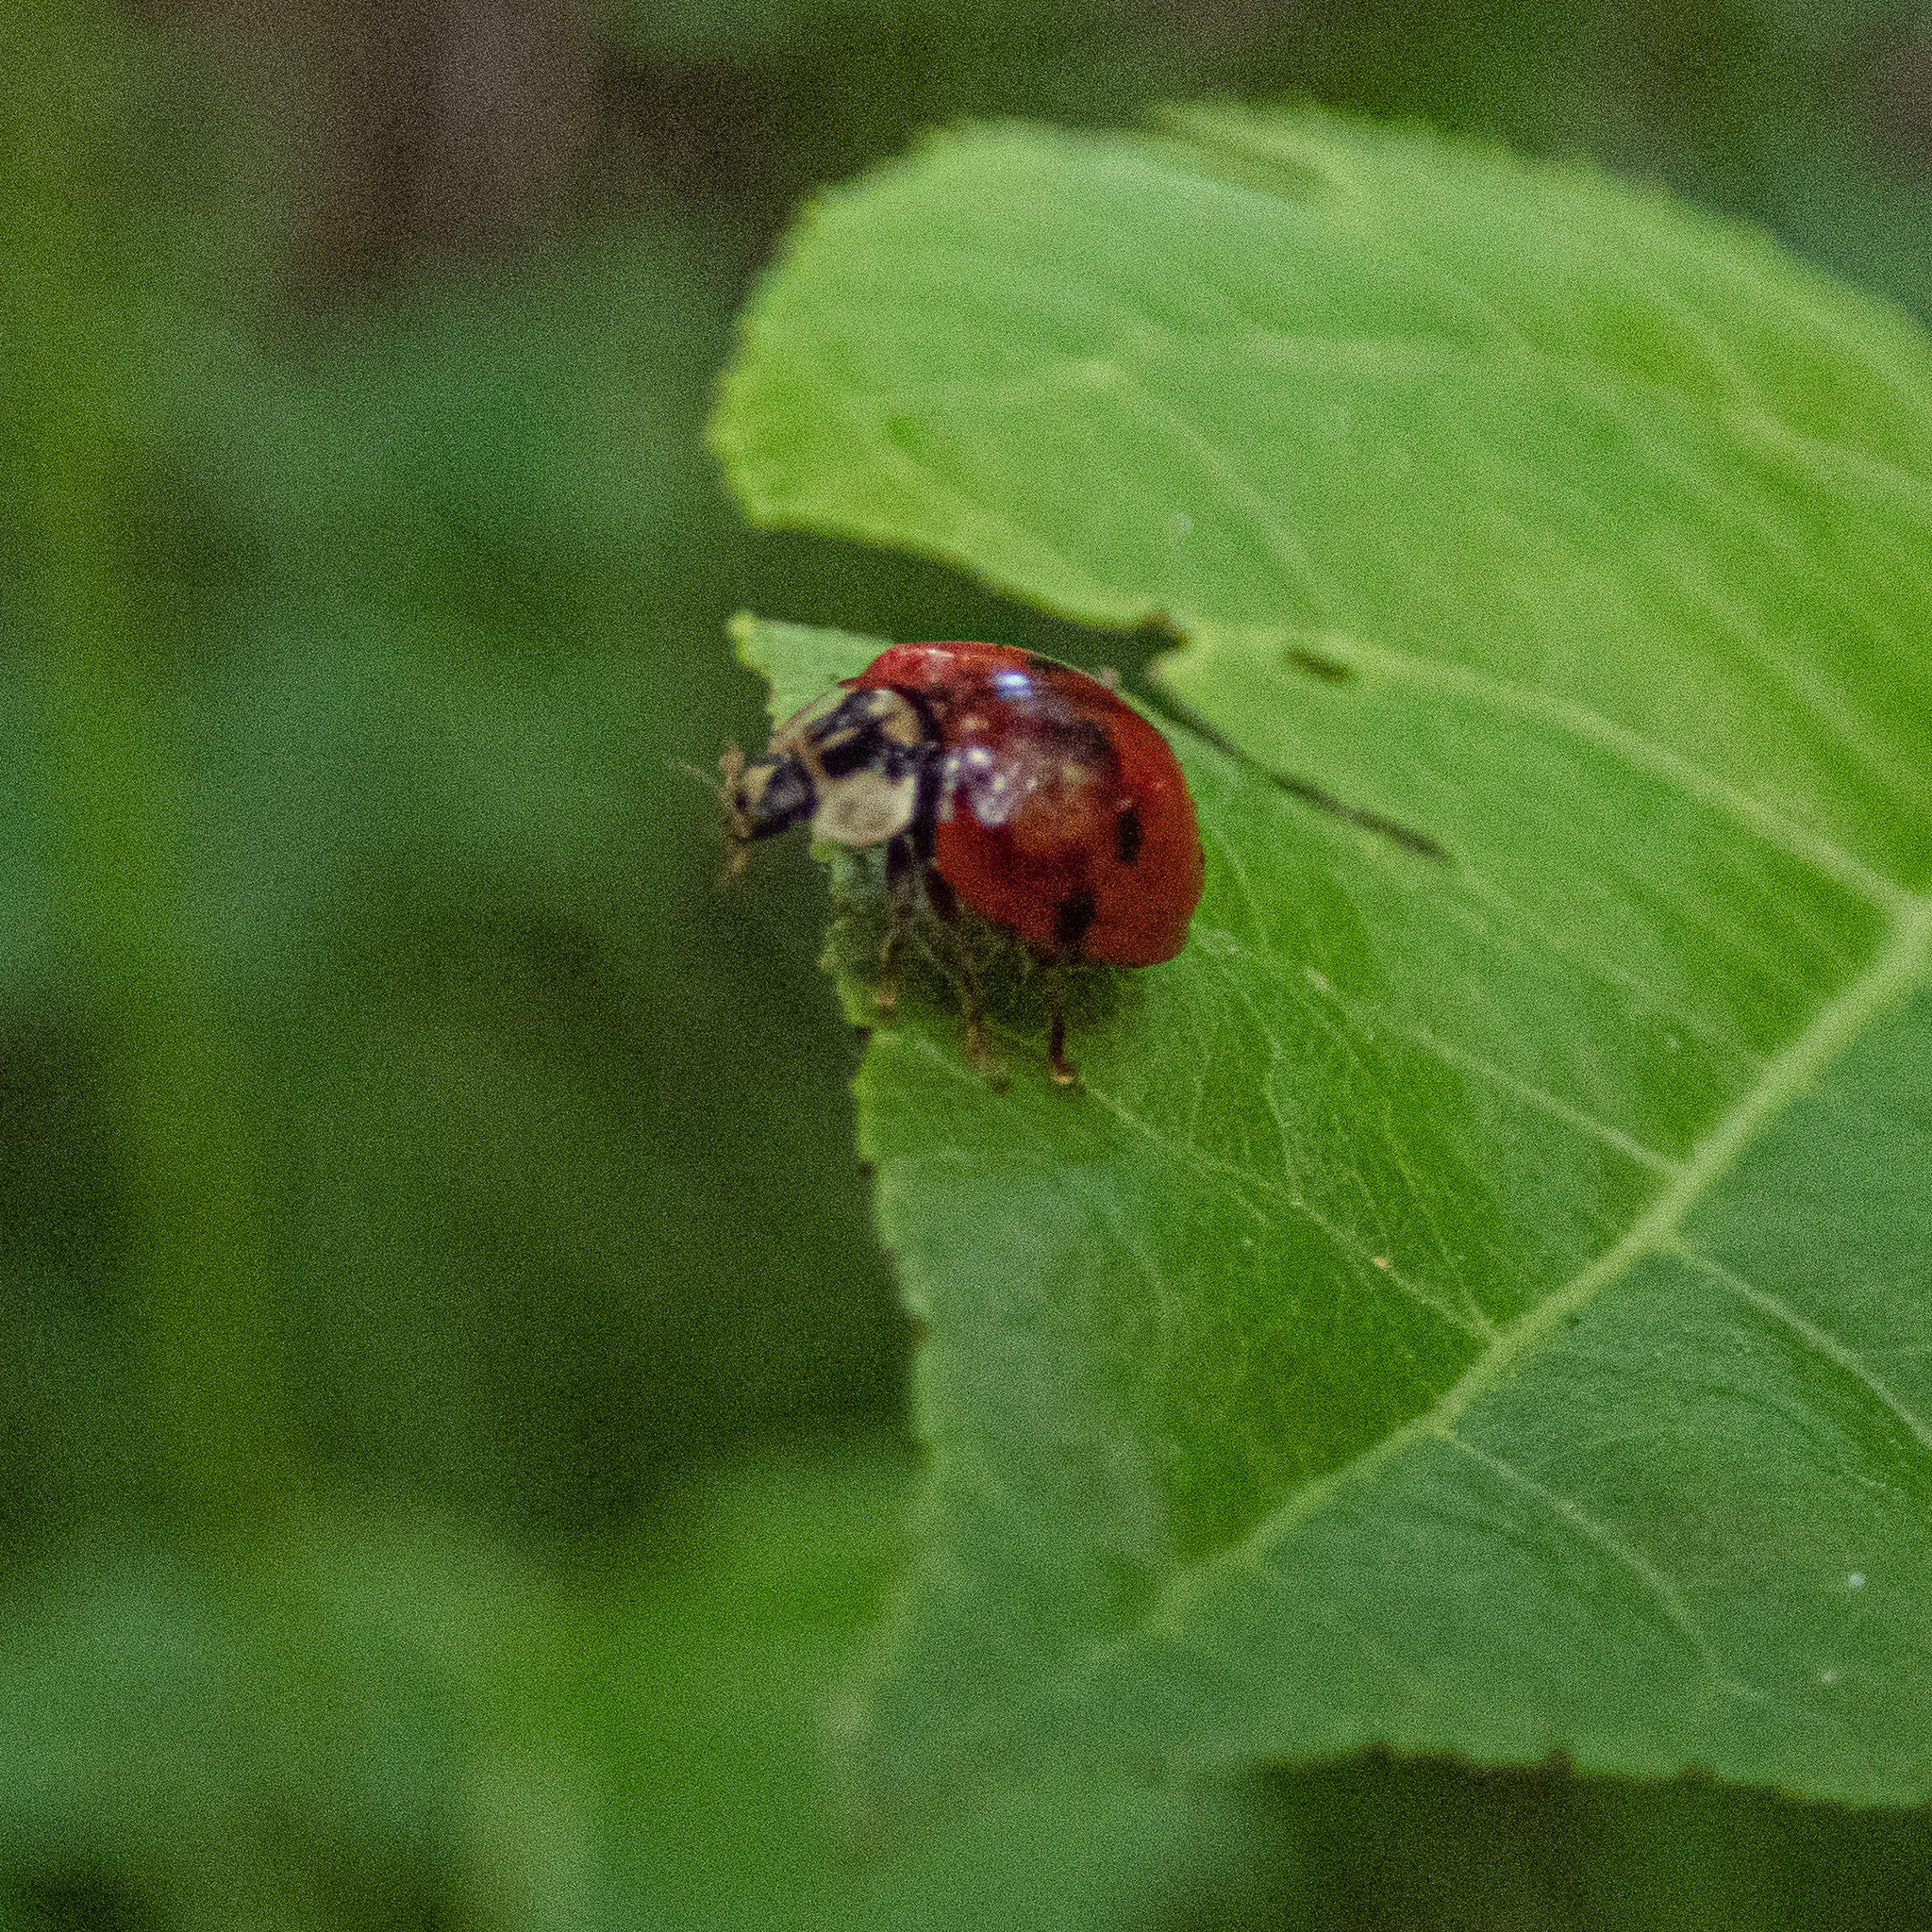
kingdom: Animalia
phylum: Arthropoda
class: Insecta
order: Coleoptera
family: Coccinellidae
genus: Harmonia
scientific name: Harmonia axyridis
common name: Harlequin ladybird
